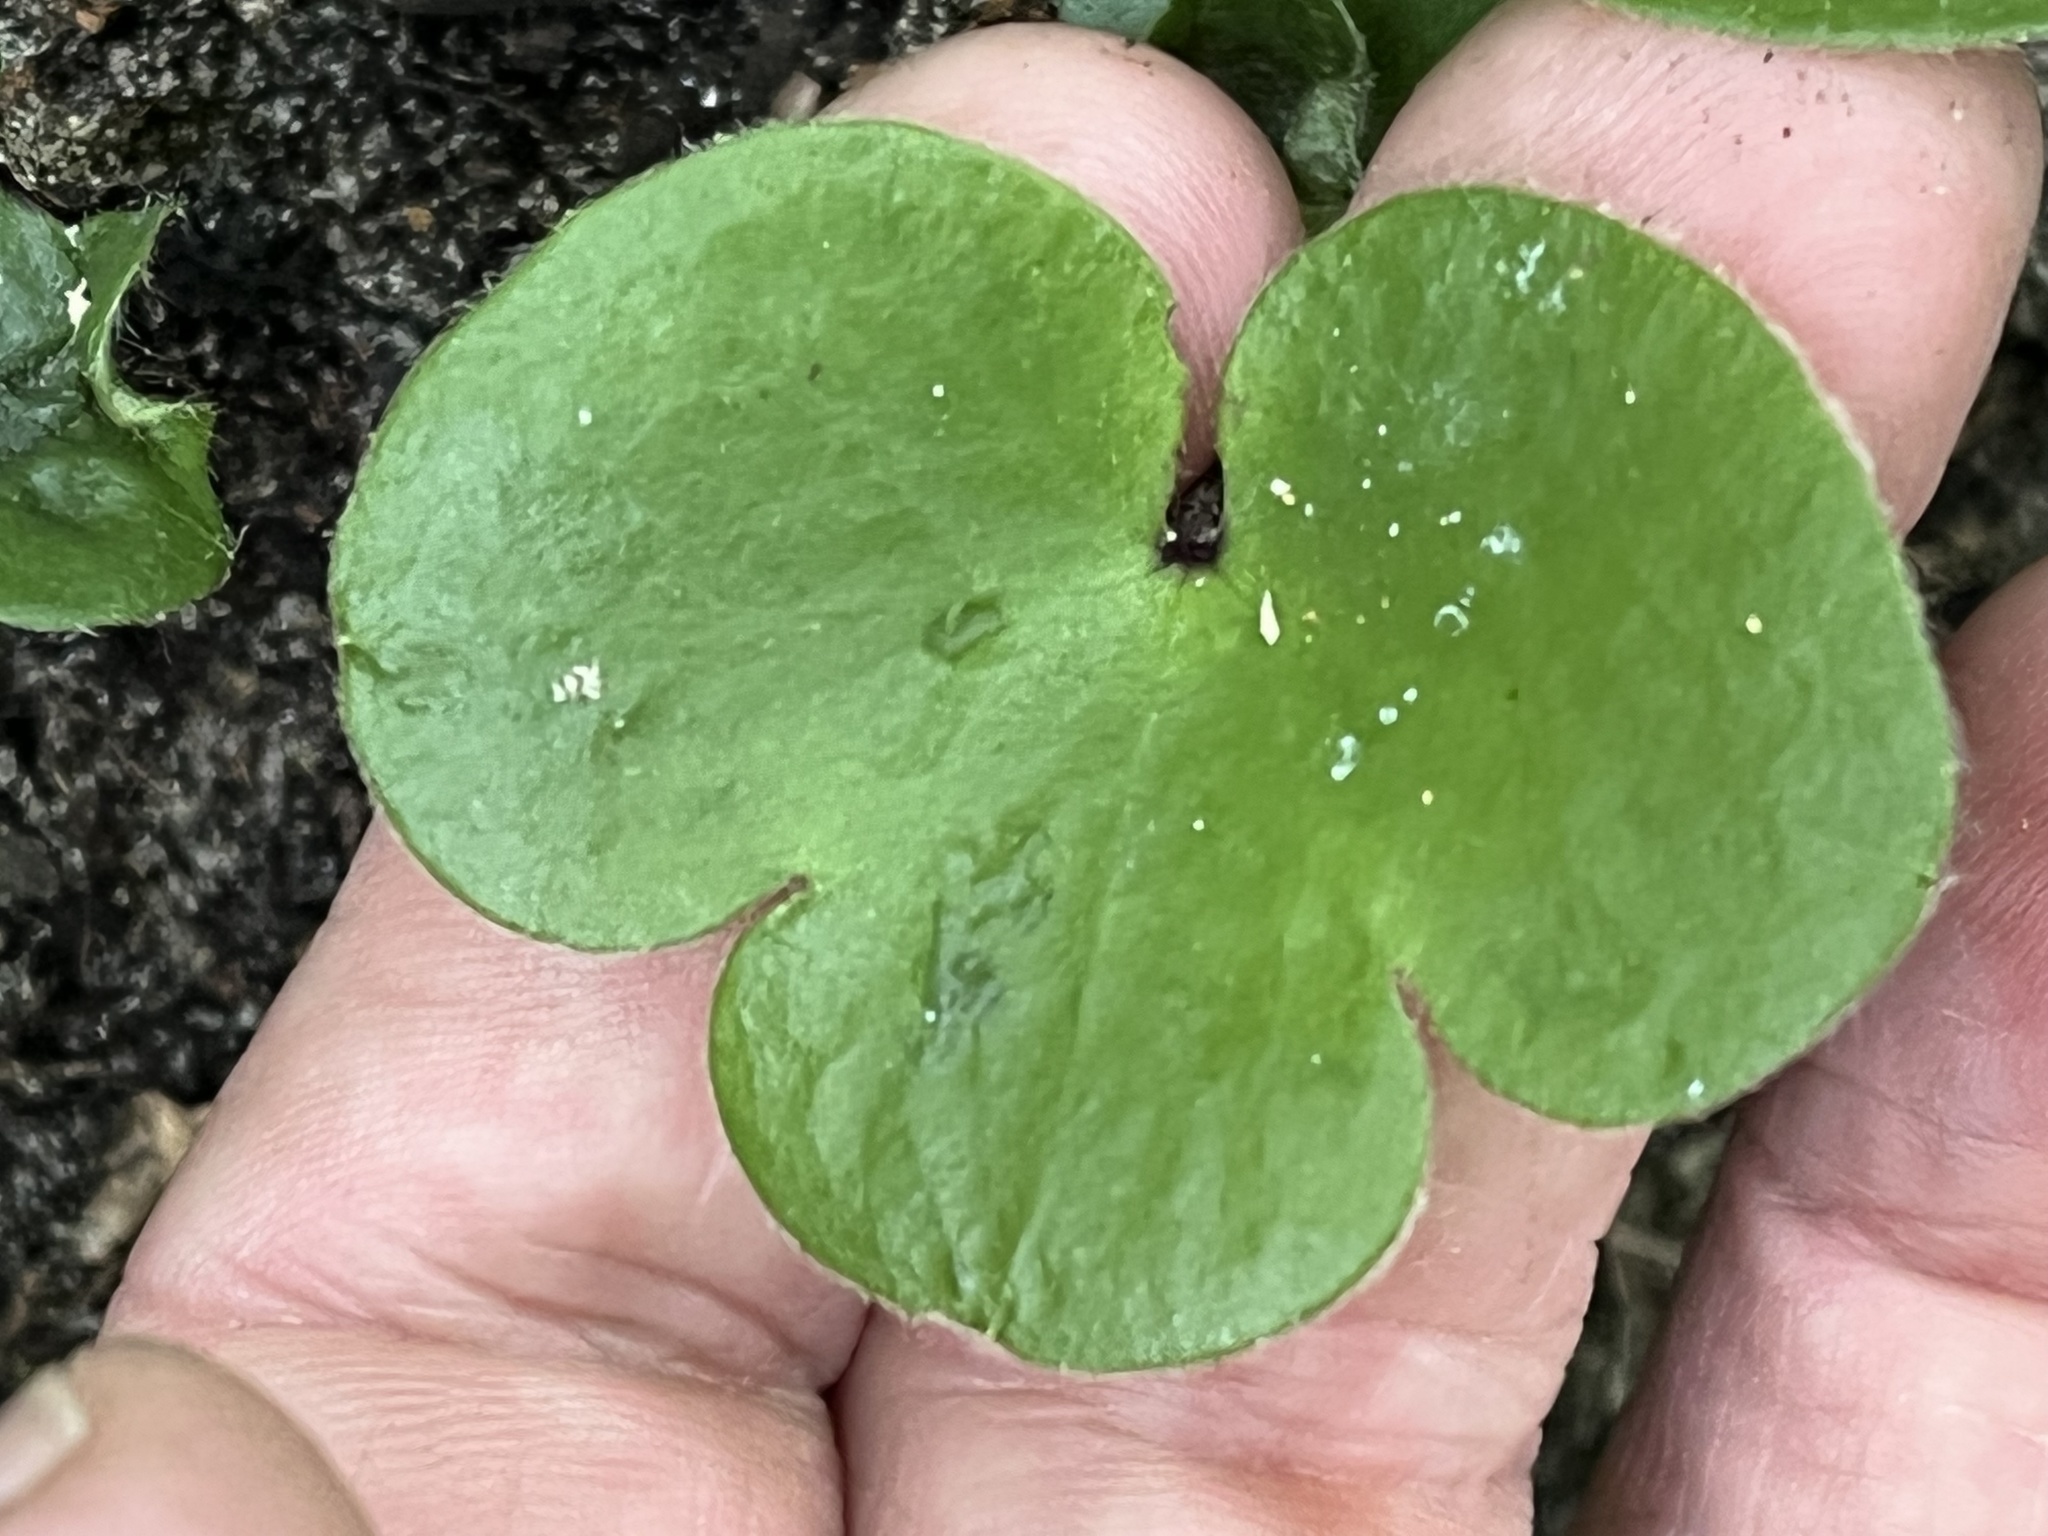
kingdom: Plantae
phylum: Tracheophyta
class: Magnoliopsida
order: Ranunculales
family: Ranunculaceae
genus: Hepatica
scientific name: Hepatica americana
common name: American hepatica
